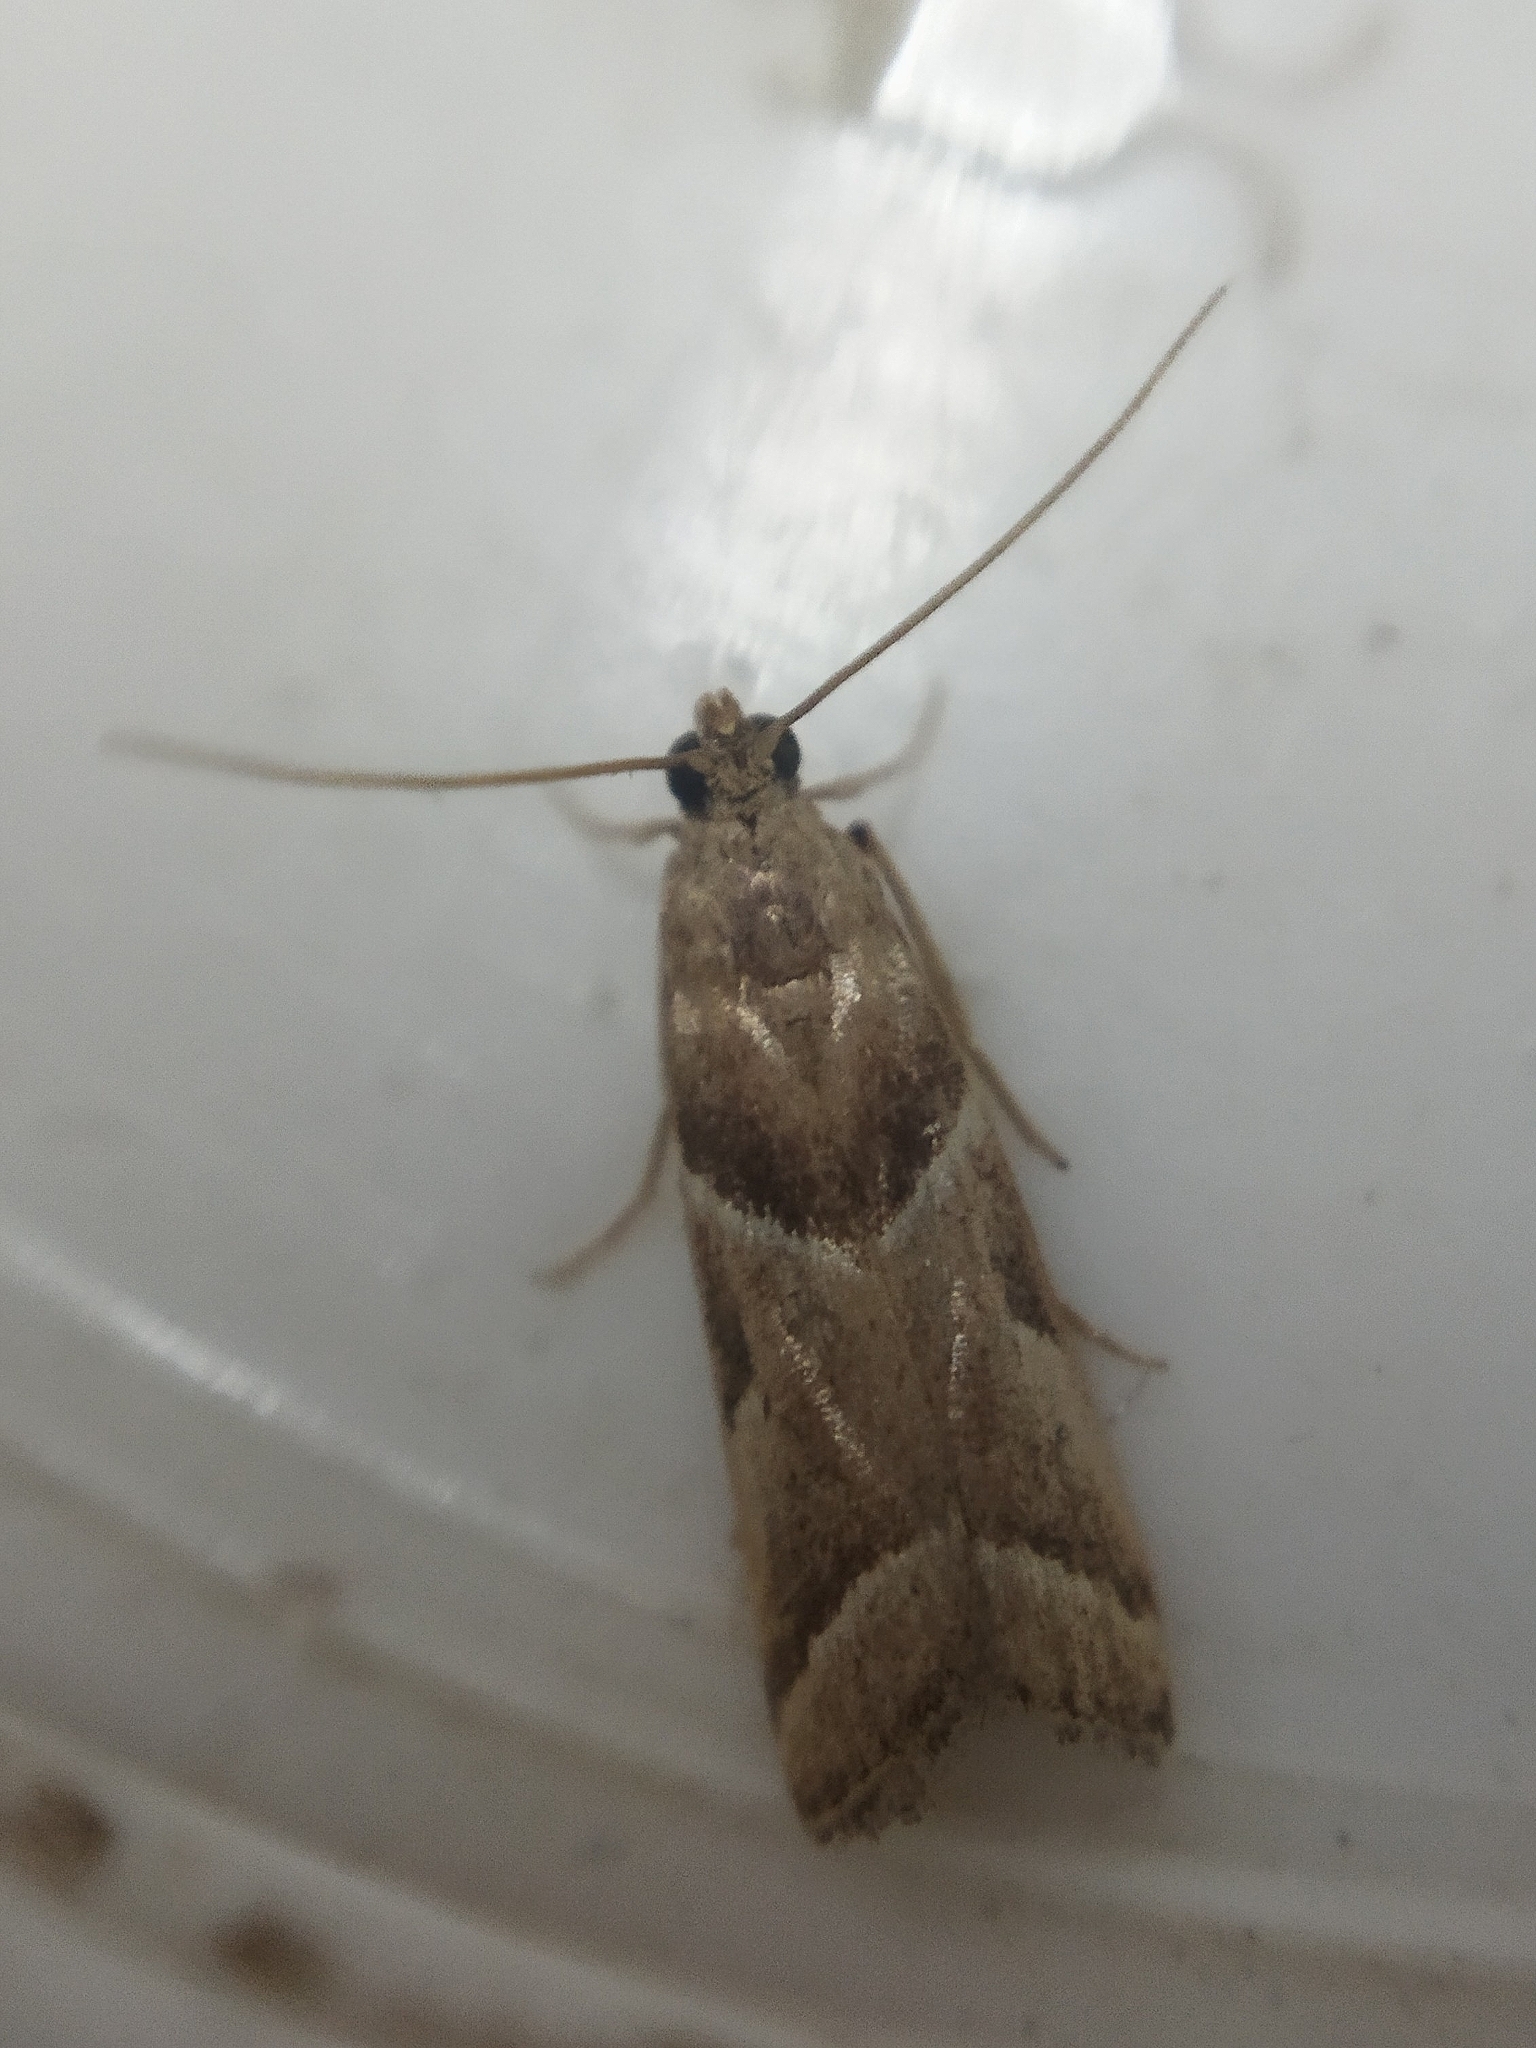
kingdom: Animalia
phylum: Arthropoda
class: Insecta
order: Lepidoptera
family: Pyralidae
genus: Nyctegretis
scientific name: Nyctegretis lineana
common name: Agate knot-horn
